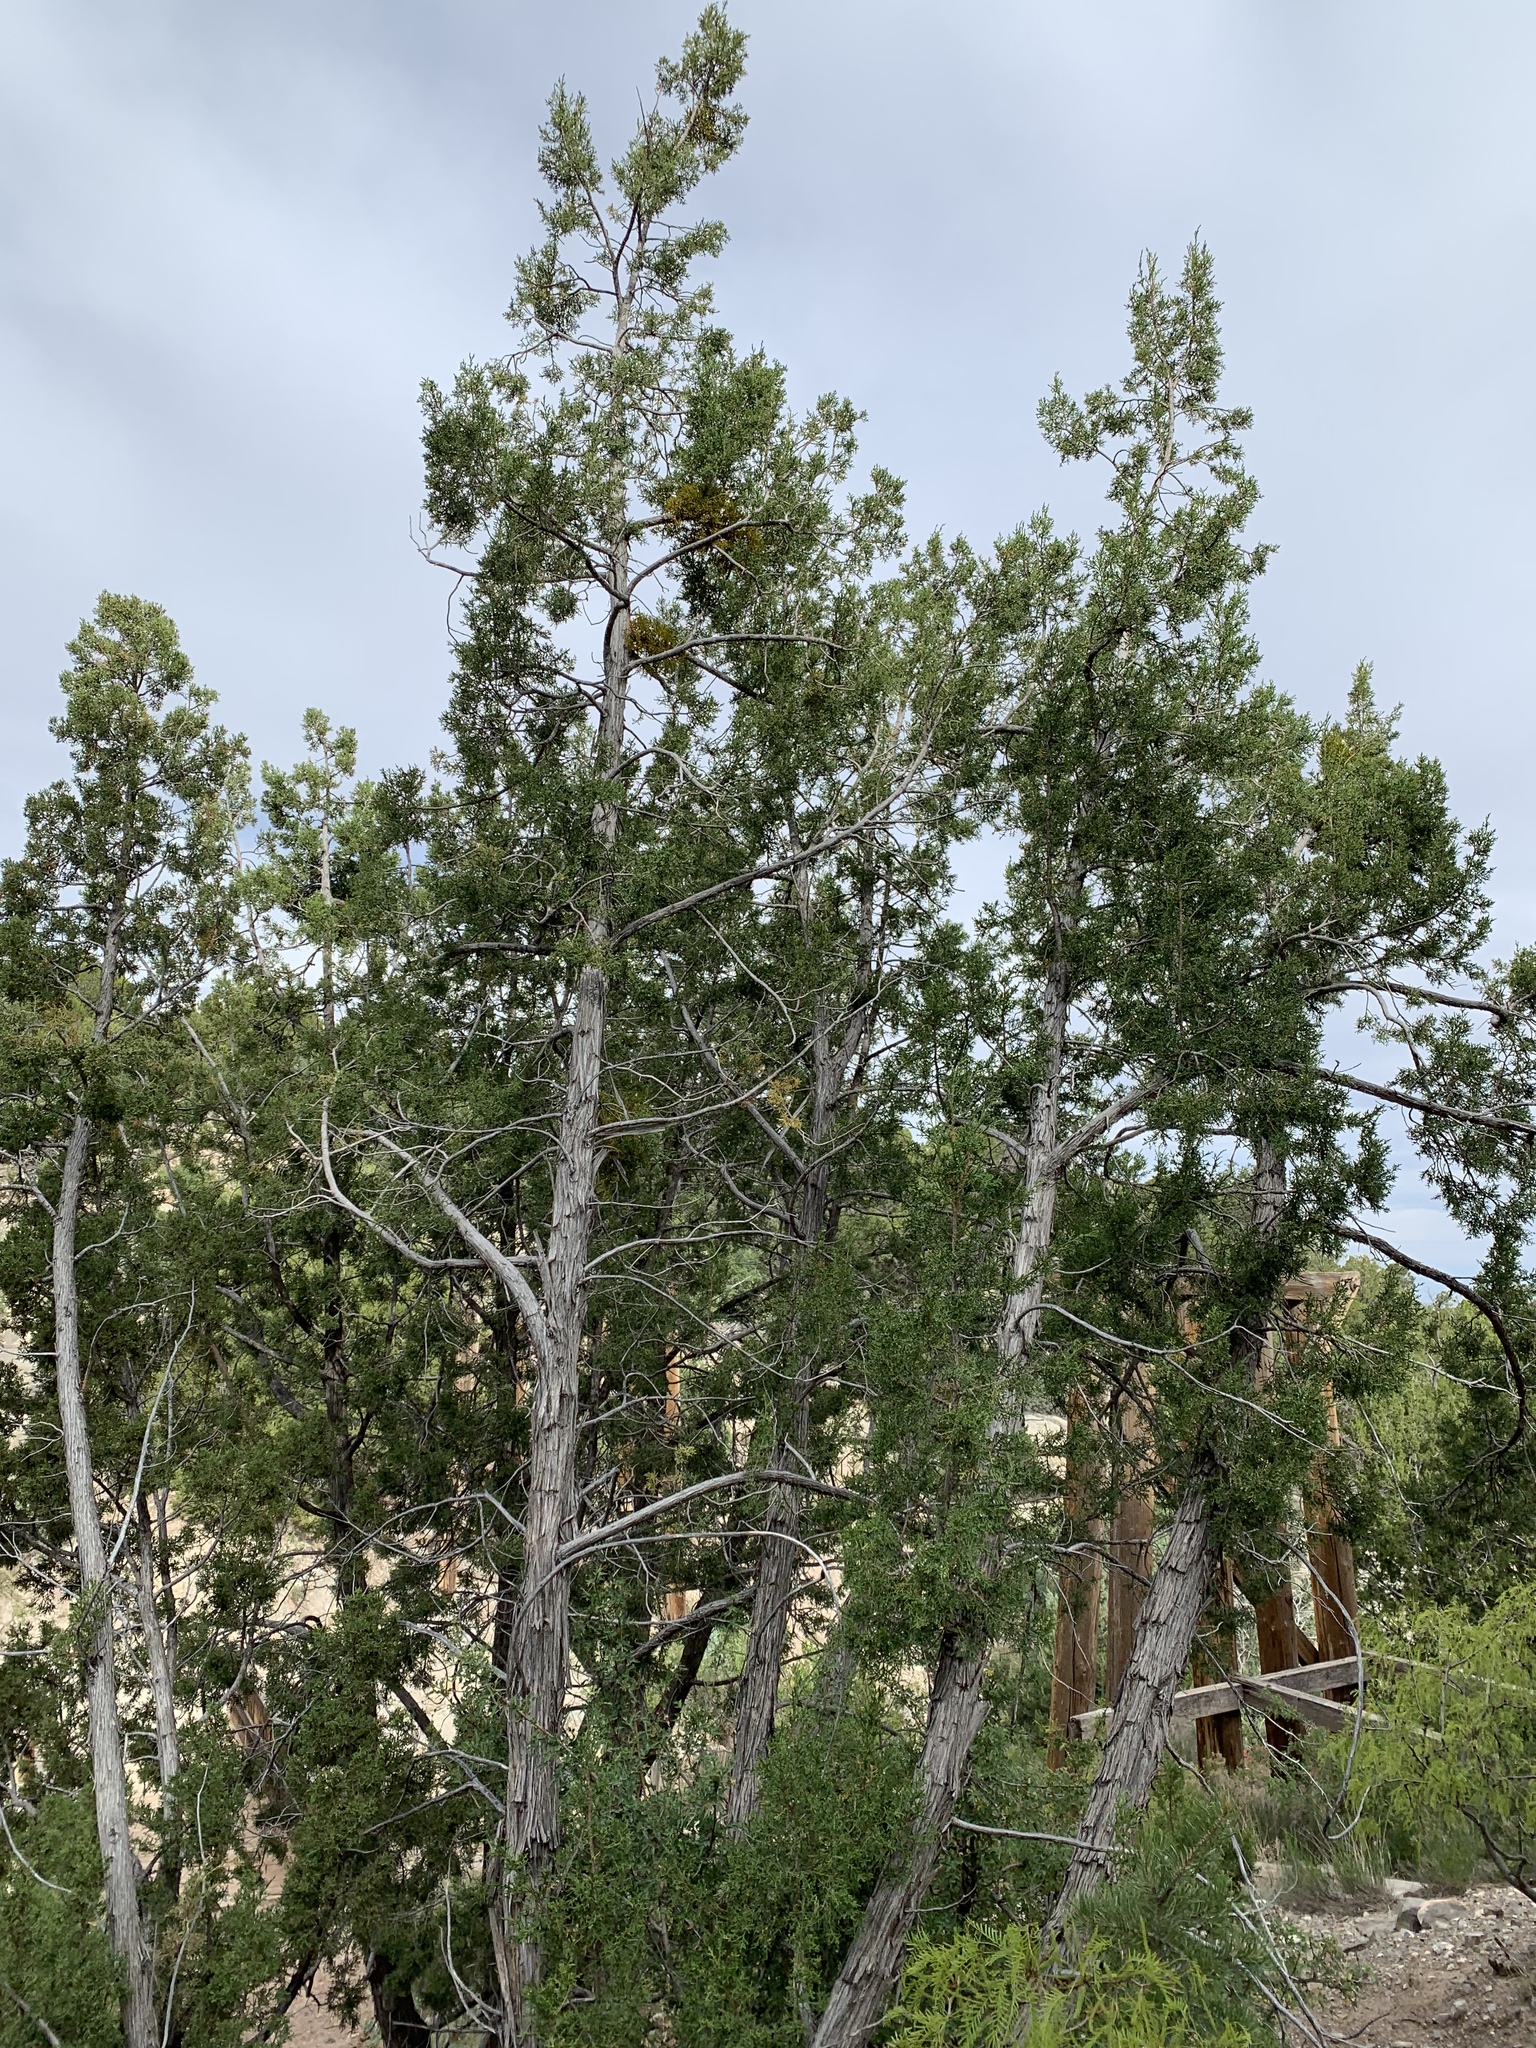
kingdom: Plantae
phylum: Tracheophyta
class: Pinopsida
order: Pinales
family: Cupressaceae
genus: Juniperus
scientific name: Juniperus monosperma
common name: One-seed juniper
